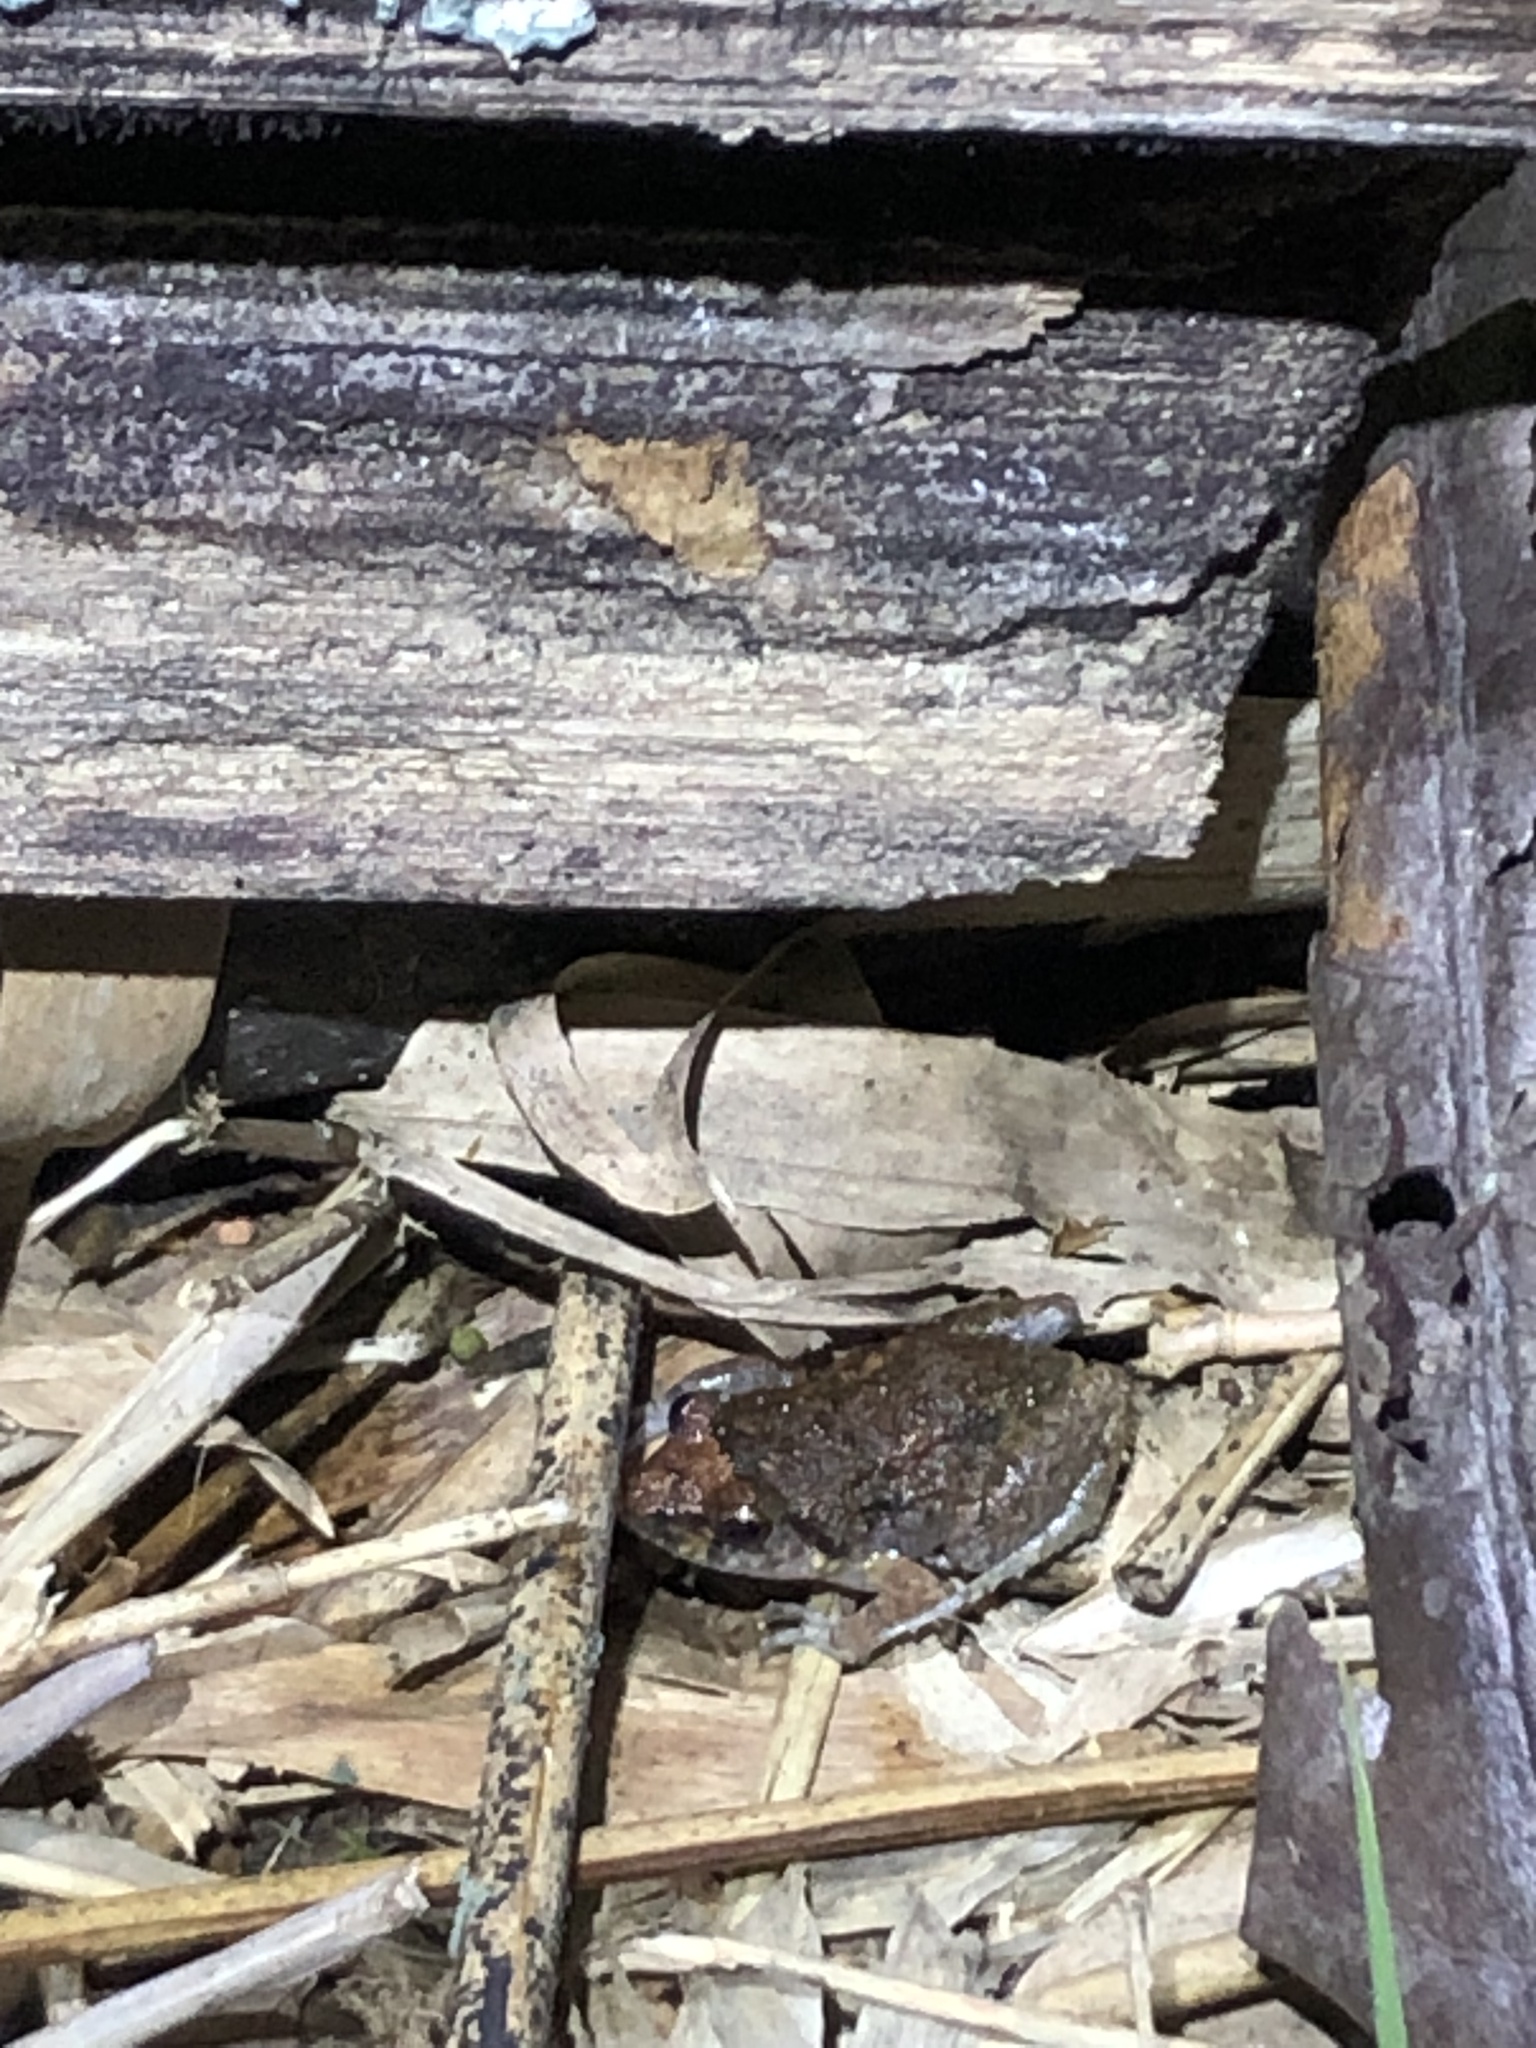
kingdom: Animalia
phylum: Chordata
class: Amphibia
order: Anura
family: Eleutherodactylidae
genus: Eleutherodactylus
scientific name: Eleutherodactylus planirostris
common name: Greenhouse frog
